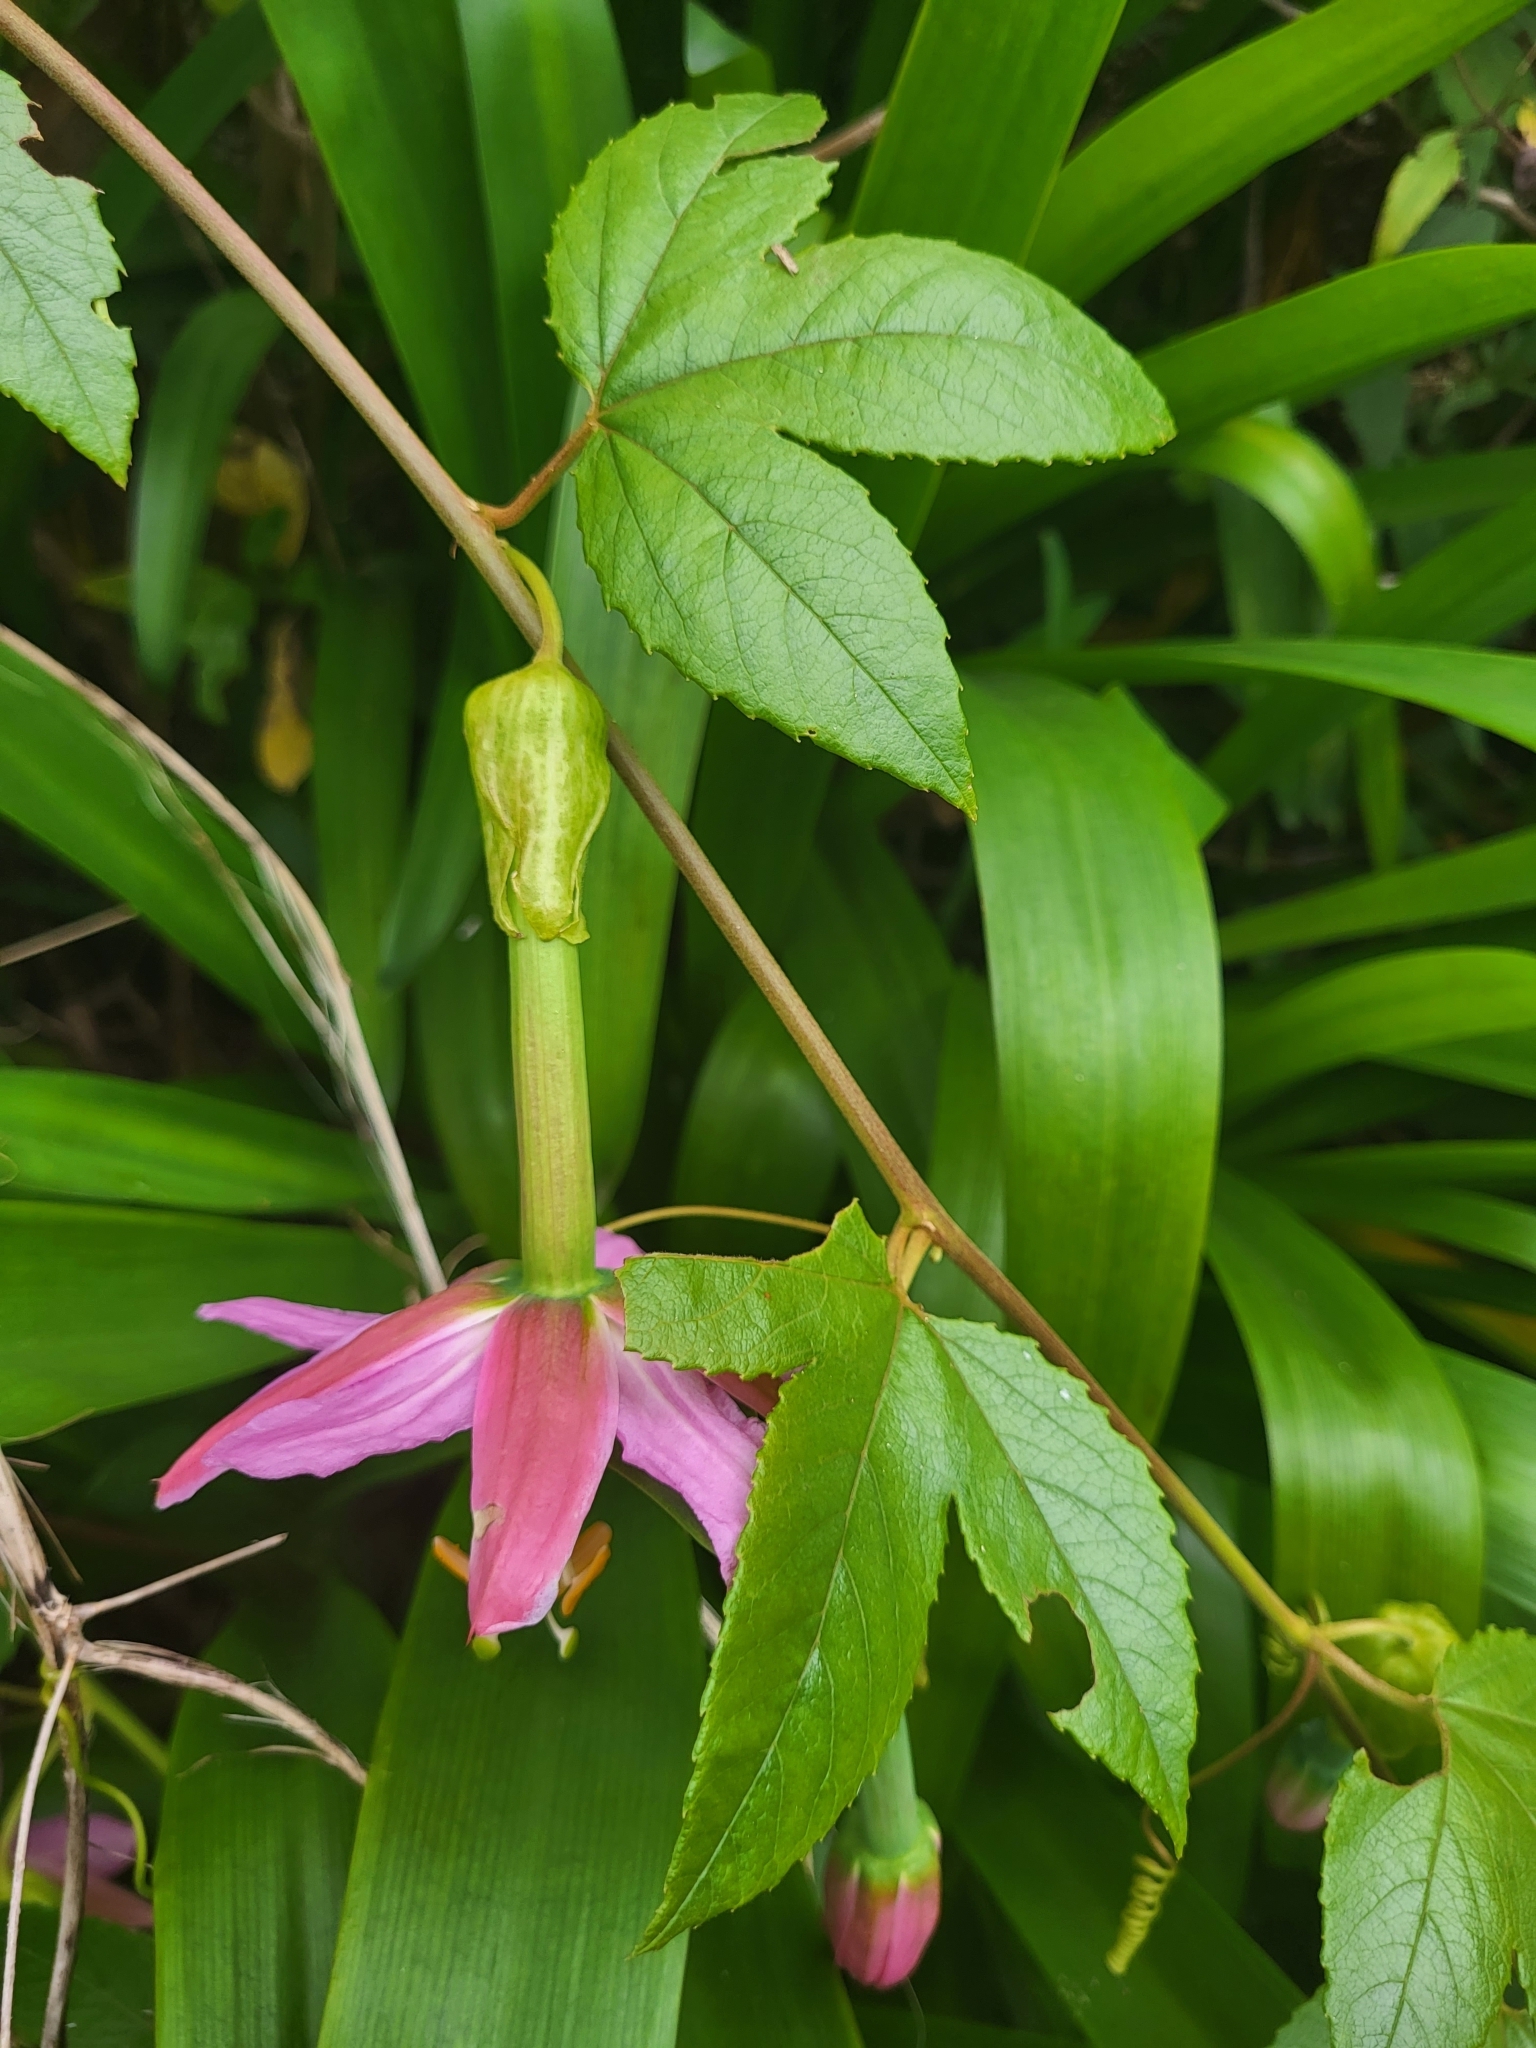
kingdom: Plantae
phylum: Tracheophyta
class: Magnoliopsida
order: Malpighiales
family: Passifloraceae
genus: Passiflora
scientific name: Passiflora tarminiana
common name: Banana poka
